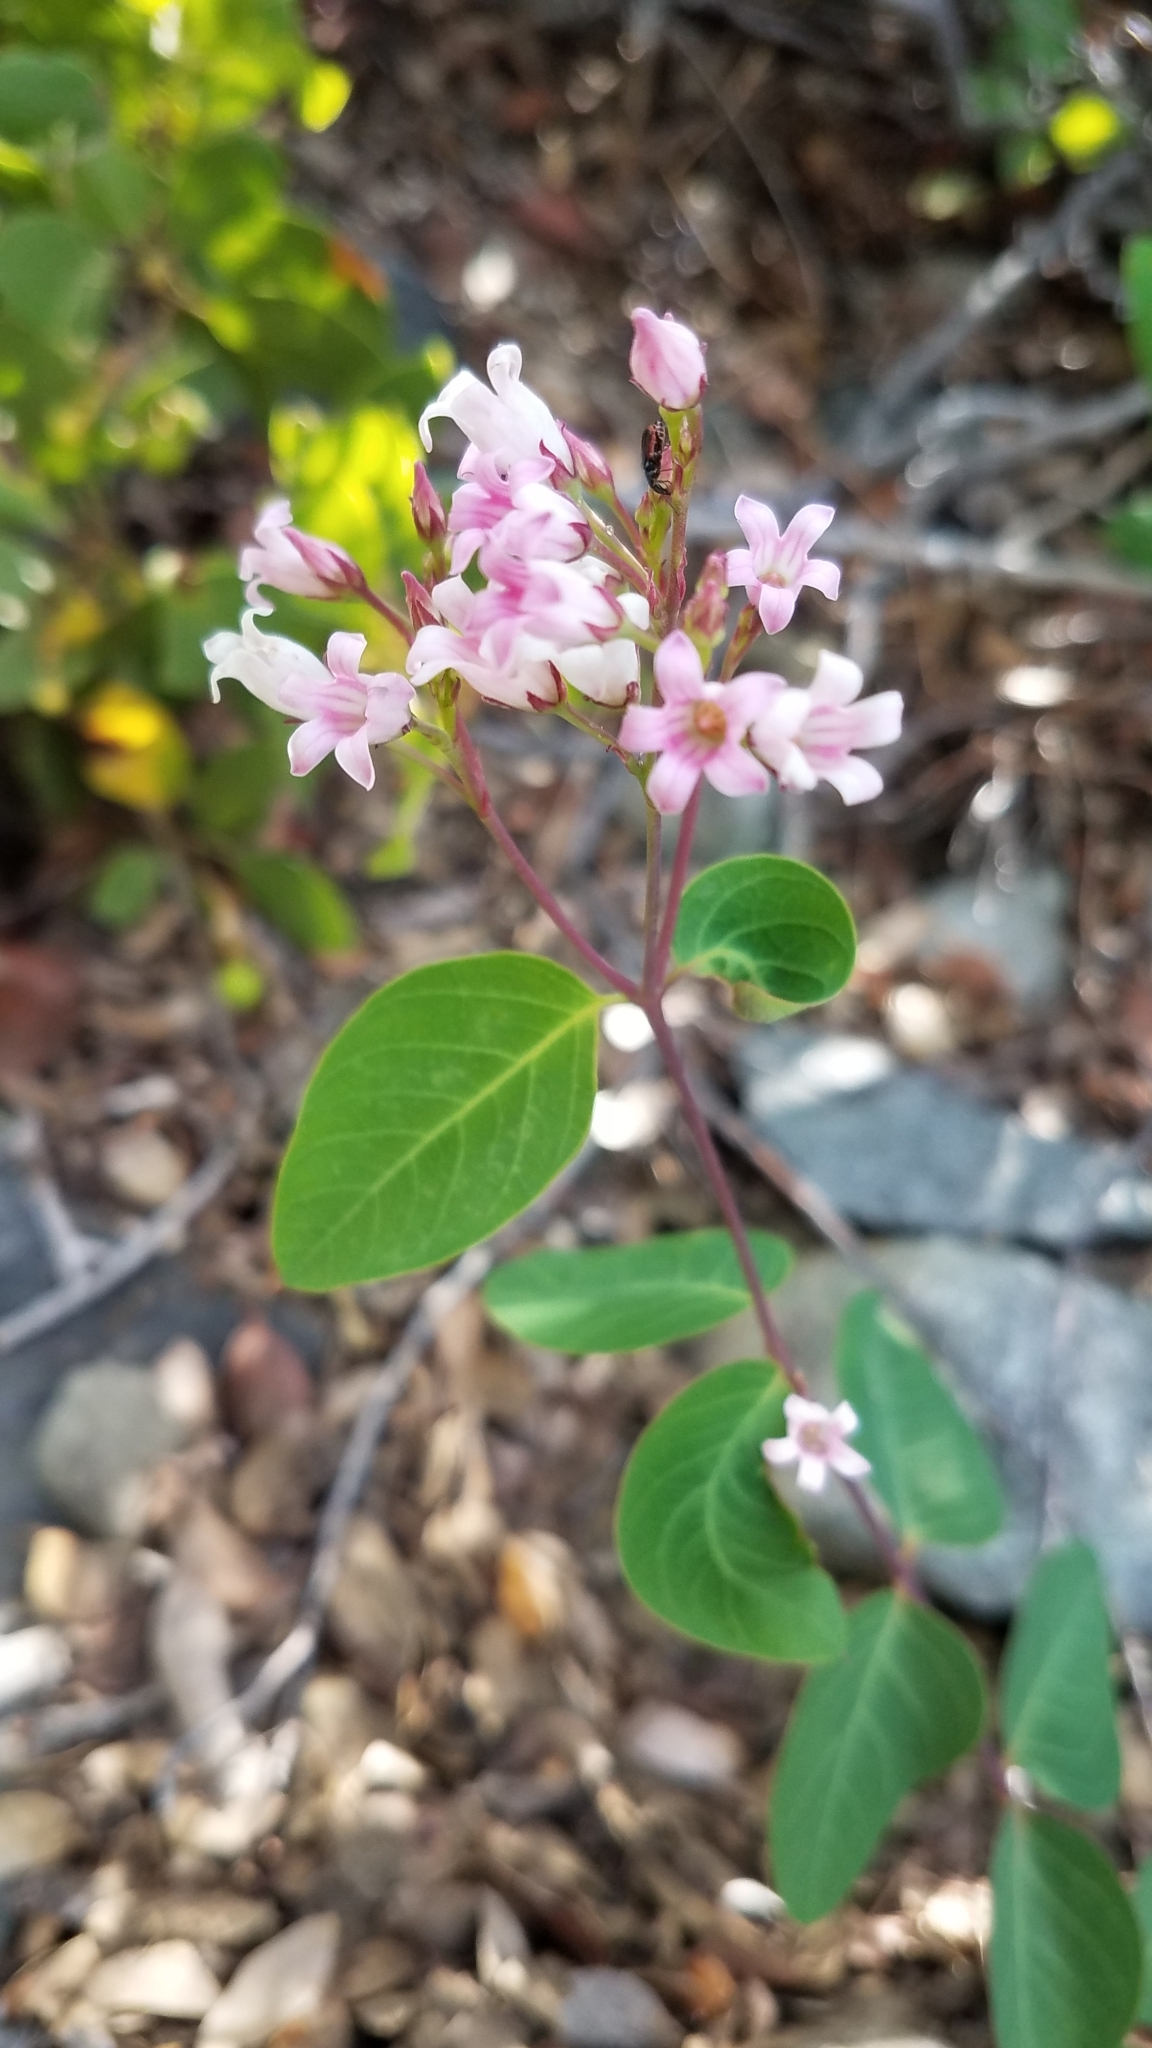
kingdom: Plantae
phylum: Tracheophyta
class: Magnoliopsida
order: Gentianales
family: Apocynaceae
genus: Apocynum
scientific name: Apocynum androsaemifolium
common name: Spreading dogbane
